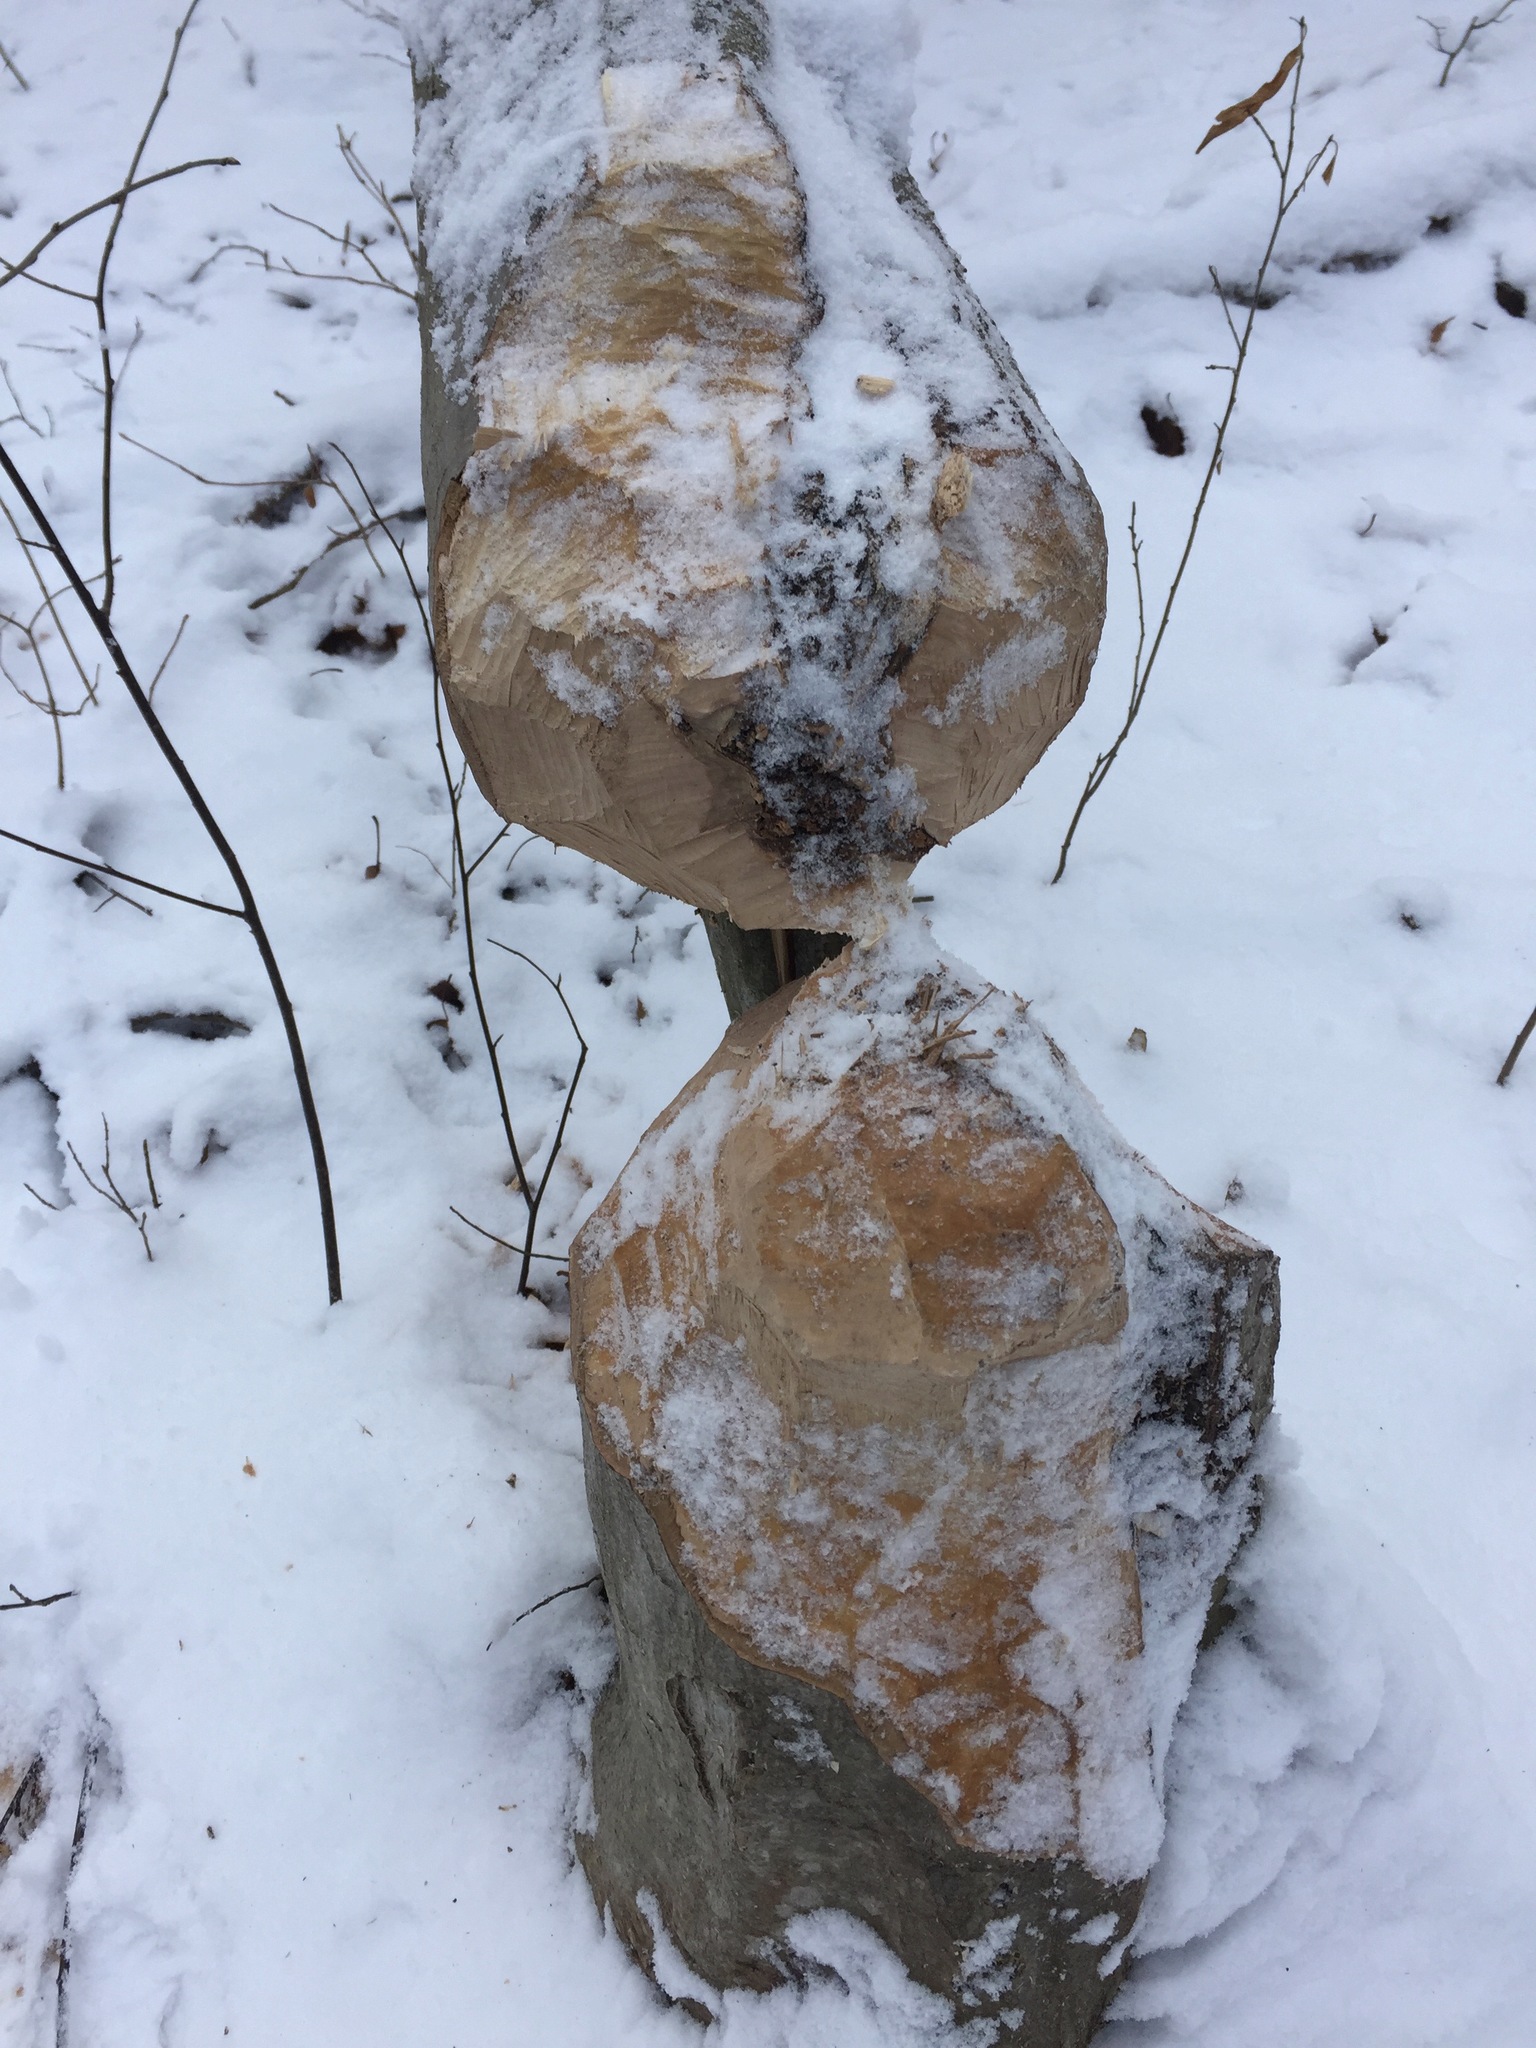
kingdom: Animalia
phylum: Chordata
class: Mammalia
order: Rodentia
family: Castoridae
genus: Castor
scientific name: Castor canadensis
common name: American beaver
